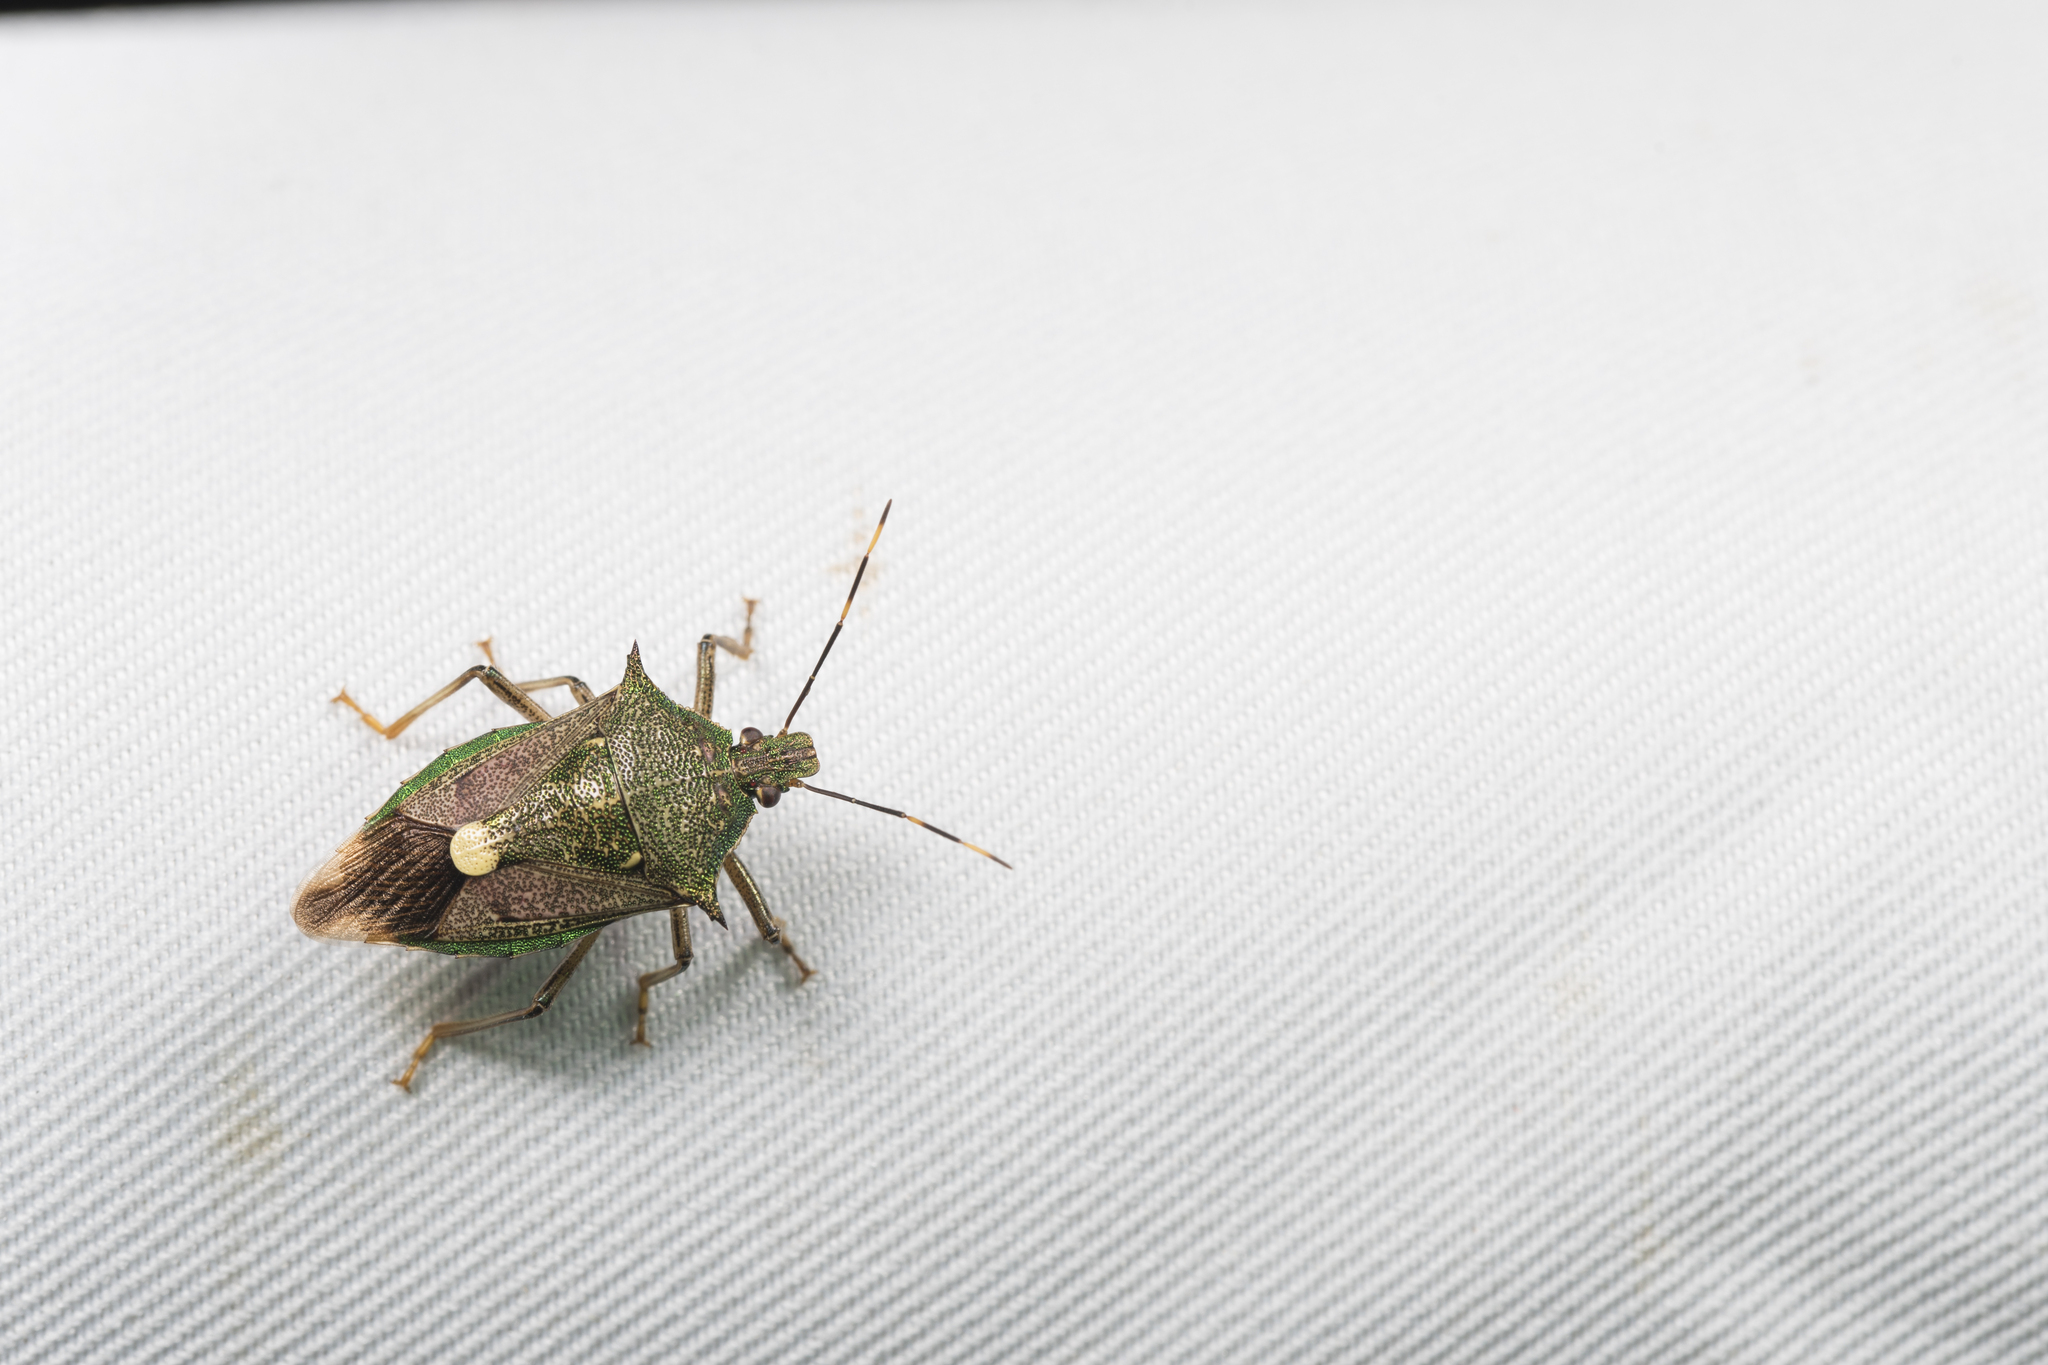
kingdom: Animalia
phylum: Arthropoda
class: Insecta
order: Hemiptera
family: Pentatomidae
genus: Eocanthecona
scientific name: Eocanthecona formosa
